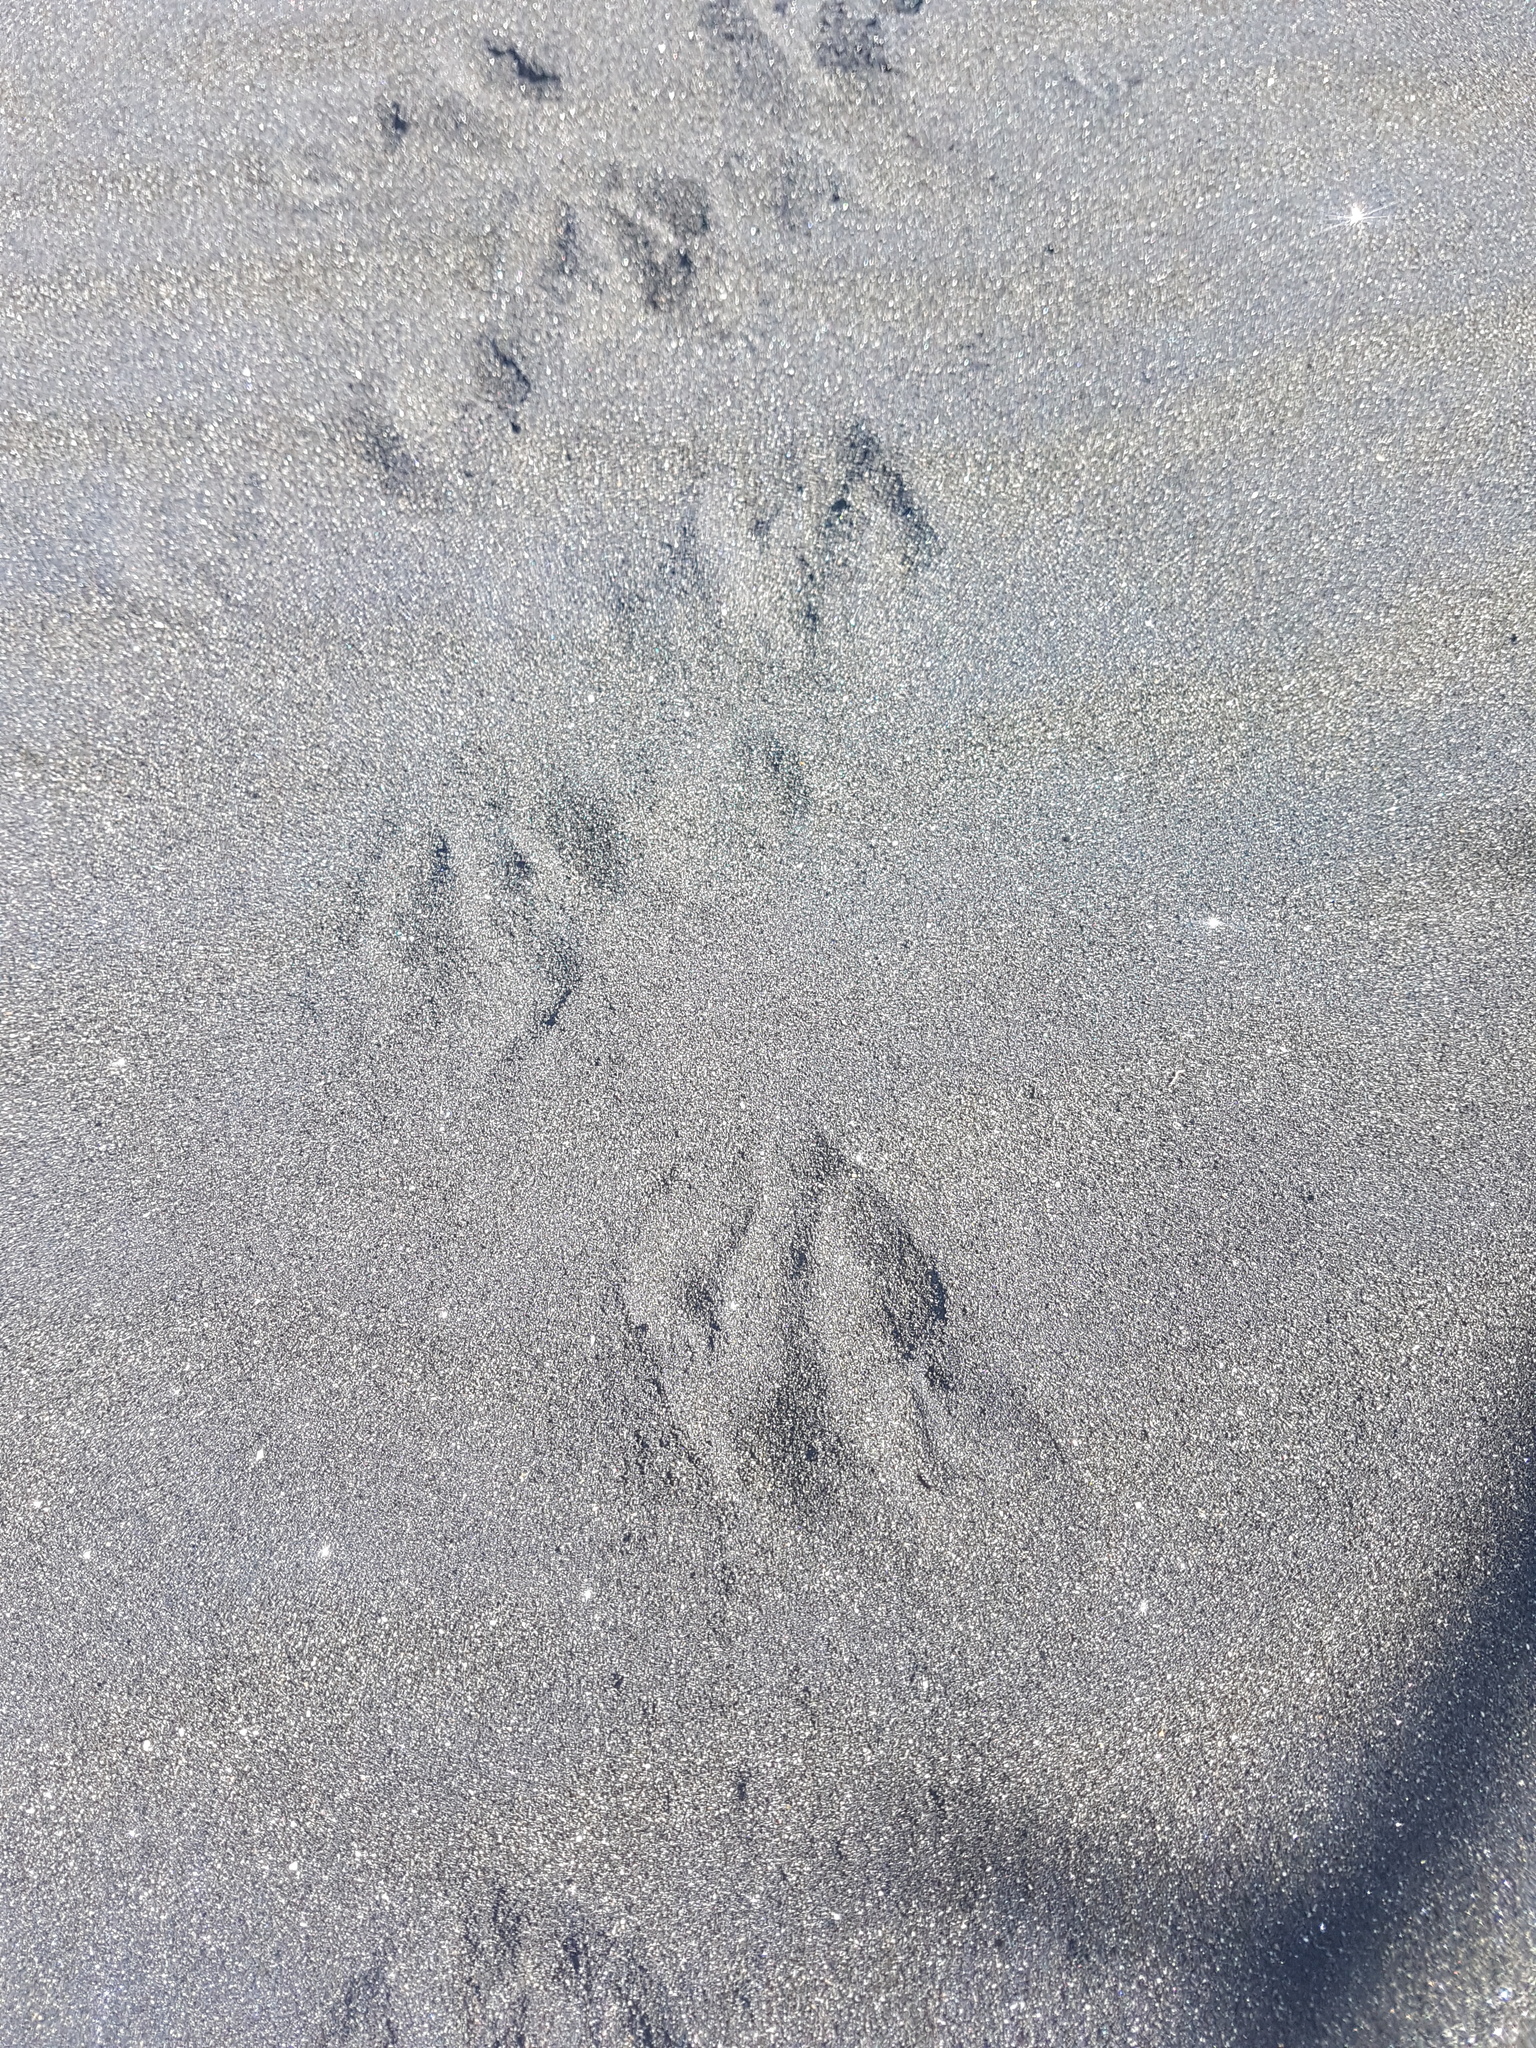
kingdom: Animalia
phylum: Chordata
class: Aves
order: Sphenisciformes
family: Spheniscidae
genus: Eudyptula
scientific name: Eudyptula minor
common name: Little penguin
